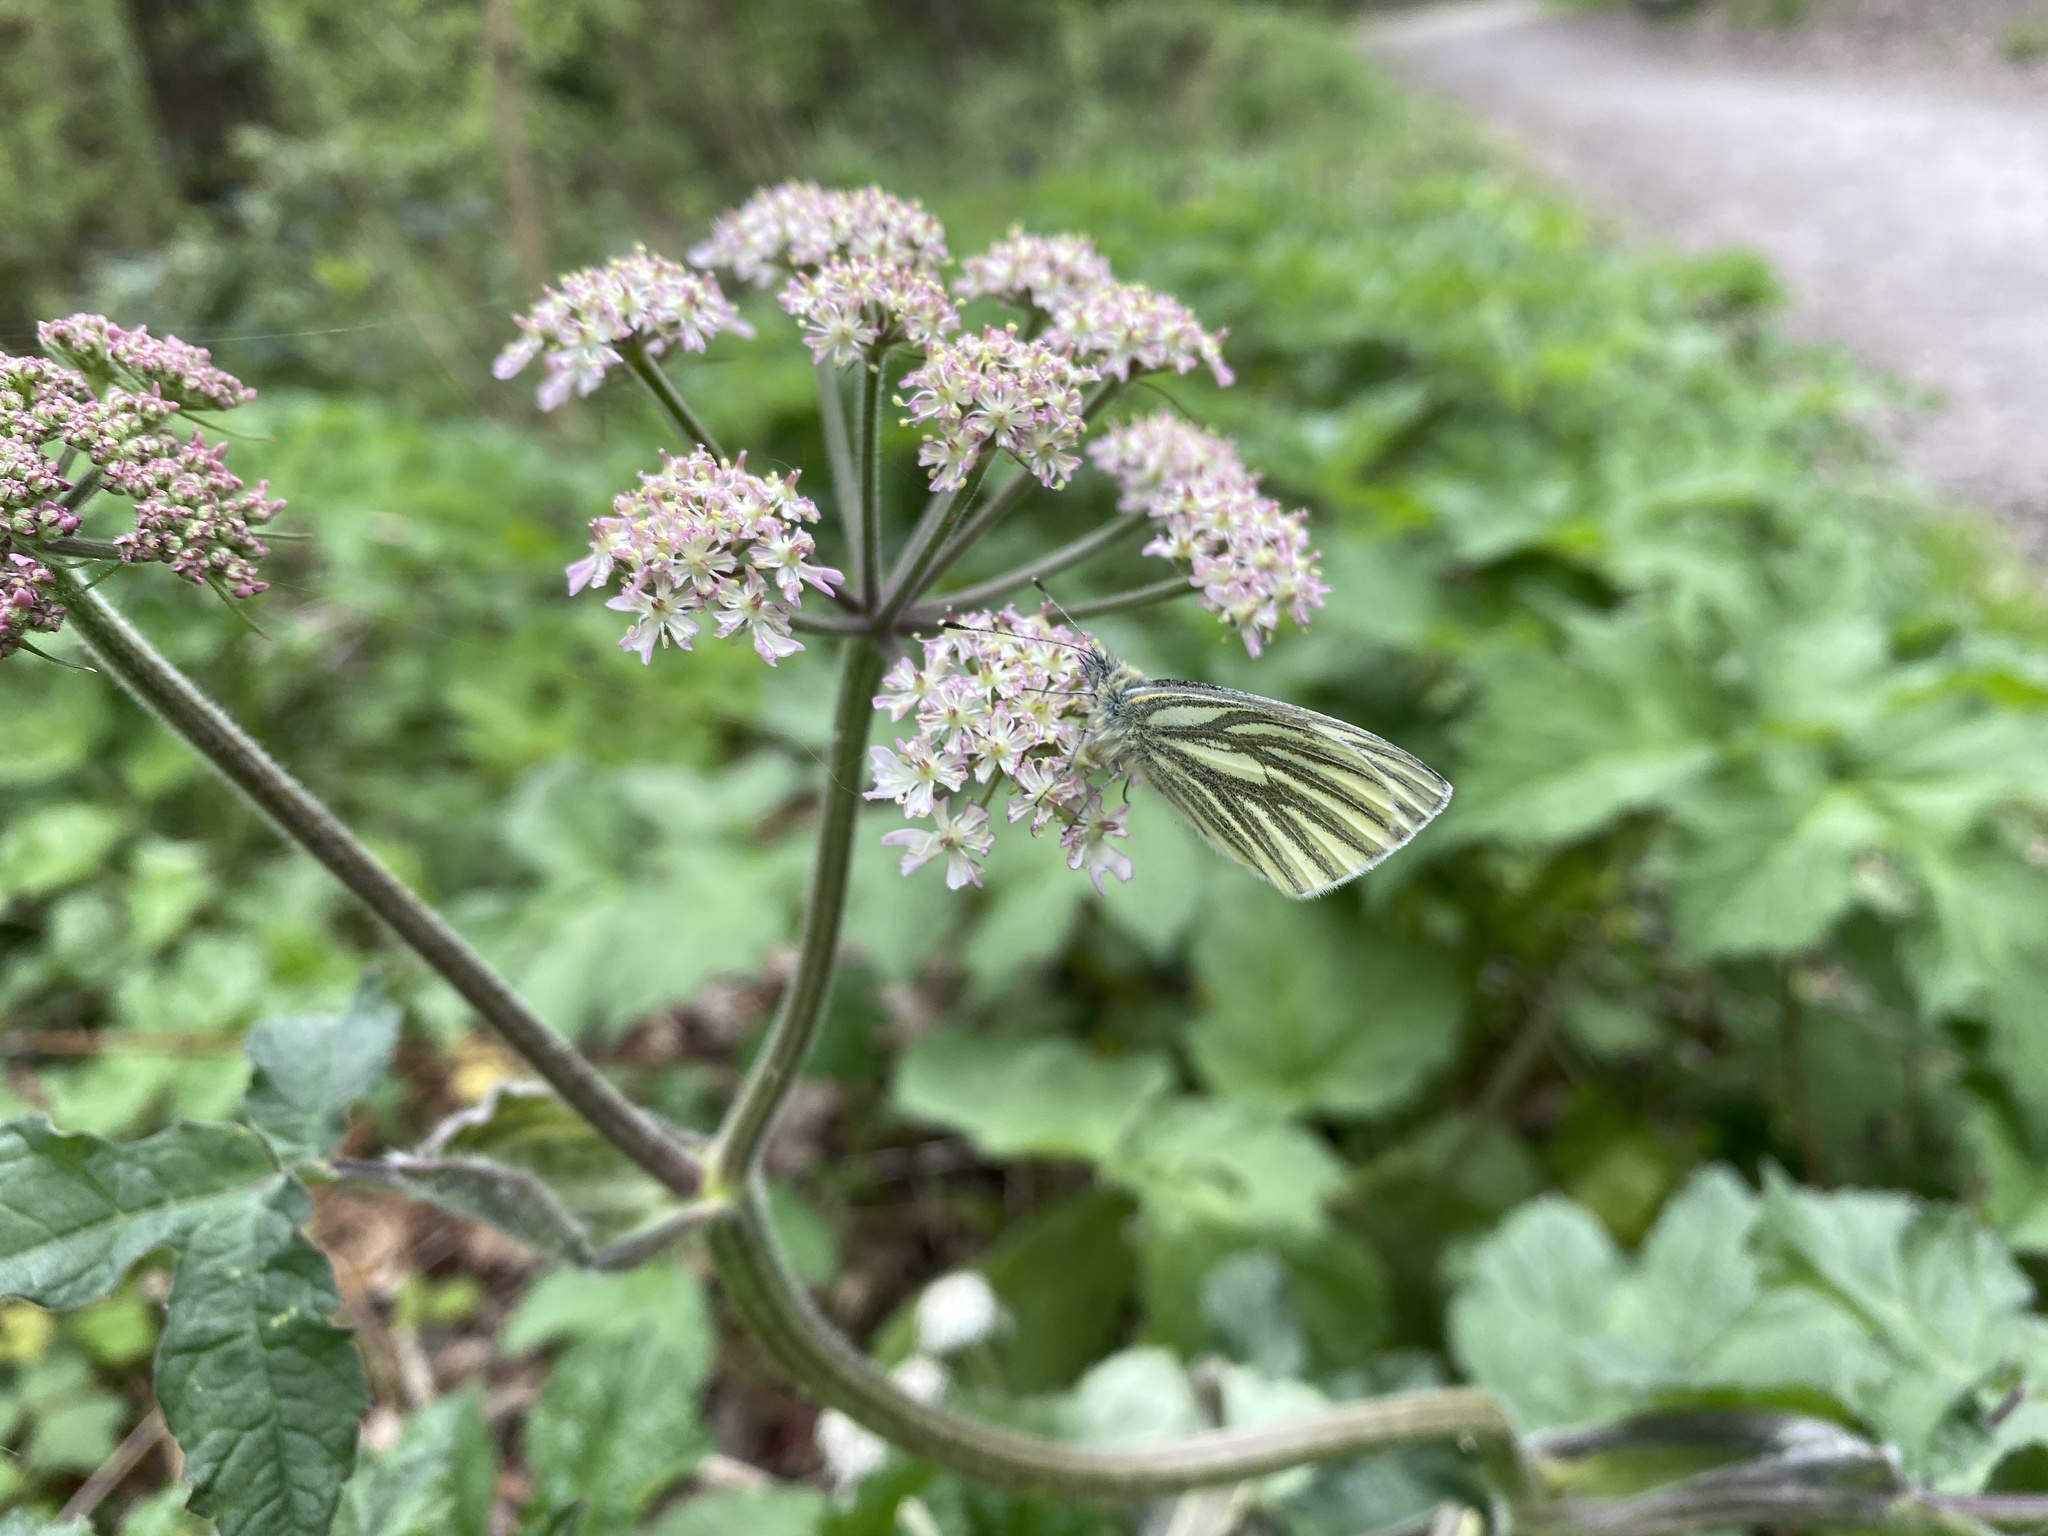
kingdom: Animalia
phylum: Arthropoda
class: Insecta
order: Lepidoptera
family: Pieridae
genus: Pieris
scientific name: Pieris napi
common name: Green-veined white
